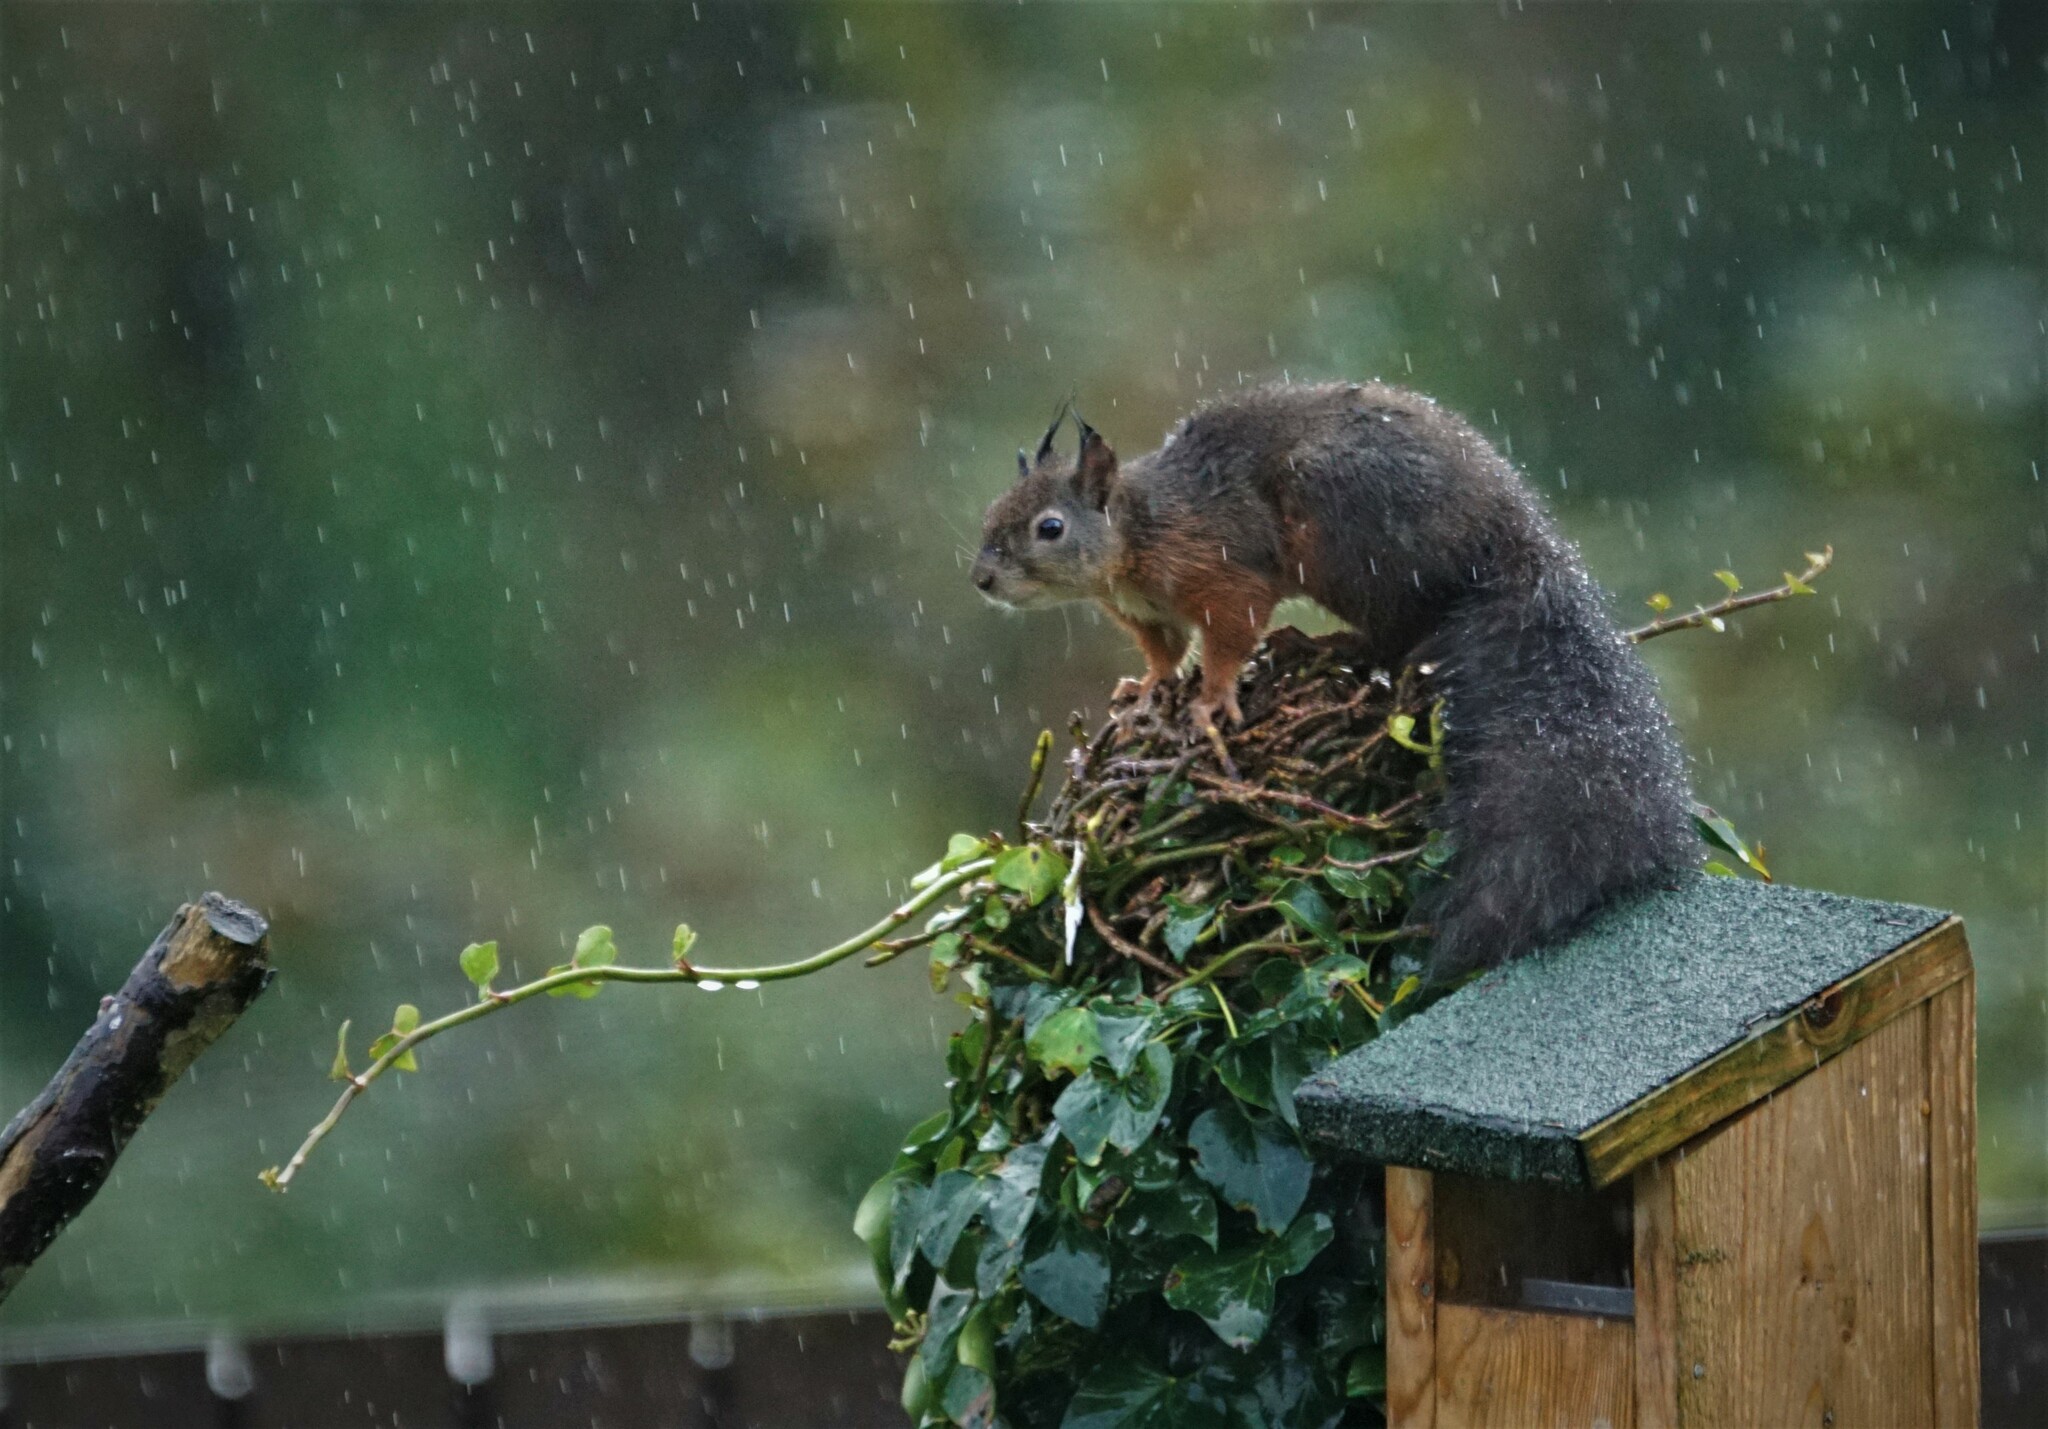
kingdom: Animalia
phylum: Chordata
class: Mammalia
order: Rodentia
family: Sciuridae
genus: Sciurus
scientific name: Sciurus vulgaris
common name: Eurasian red squirrel
